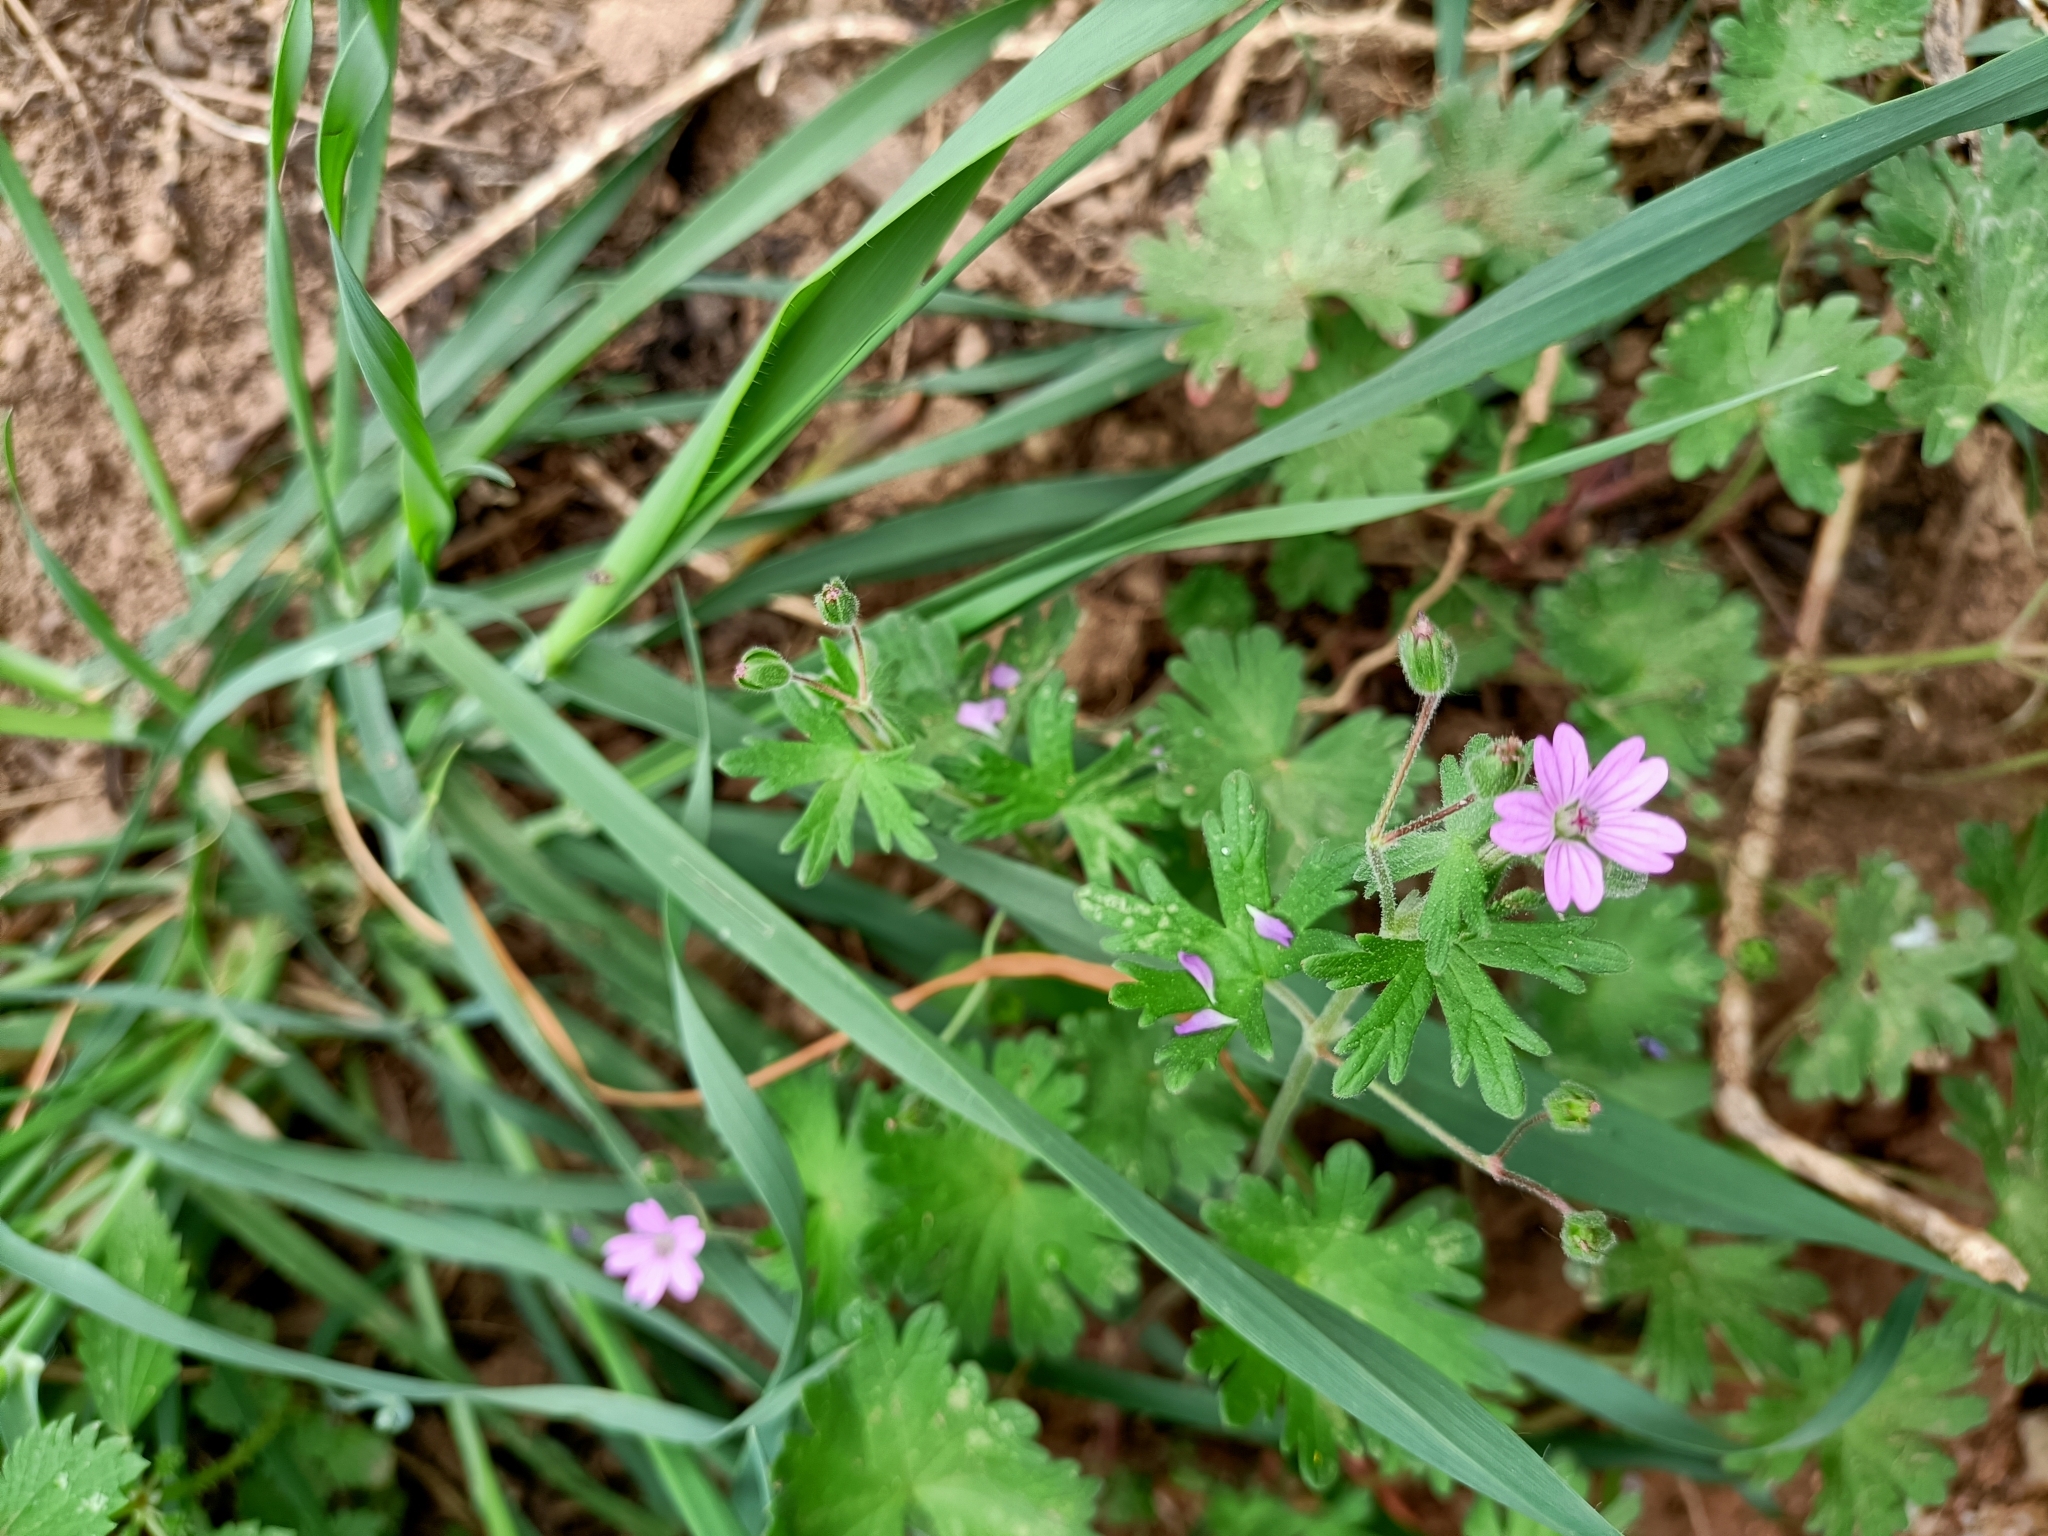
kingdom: Plantae
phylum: Tracheophyta
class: Magnoliopsida
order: Geraniales
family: Geraniaceae
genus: Geranium
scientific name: Geranium molle
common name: Dove's-foot crane's-bill
